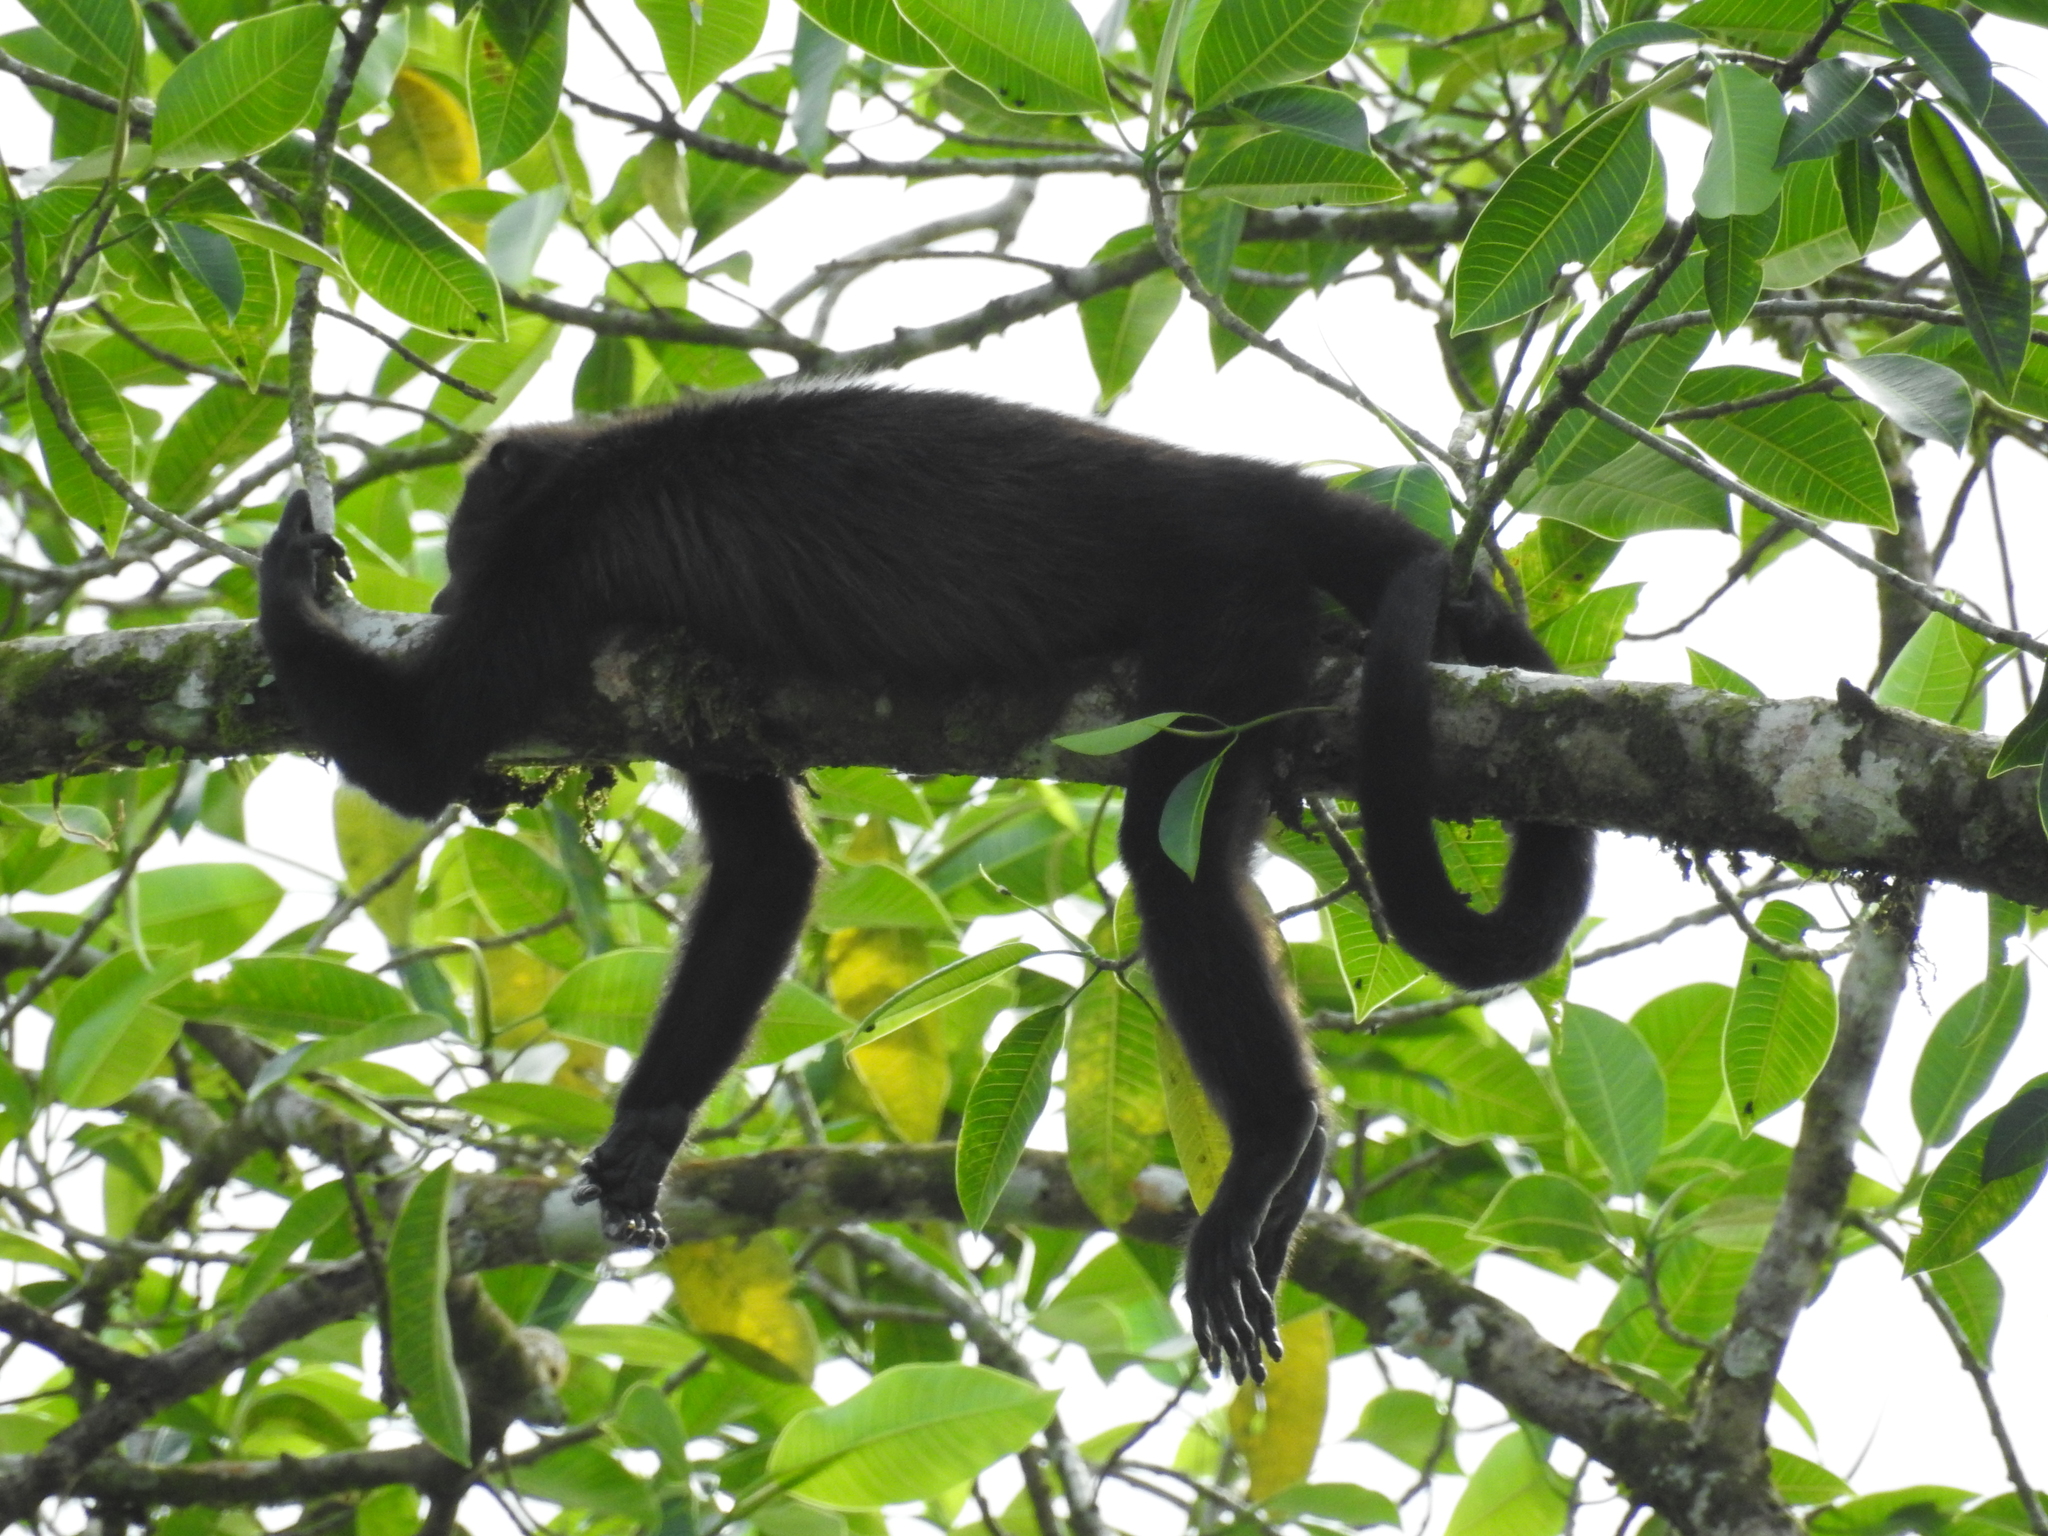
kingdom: Animalia
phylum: Chordata
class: Mammalia
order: Primates
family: Atelidae
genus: Alouatta
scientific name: Alouatta palliata
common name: Mantled howler
